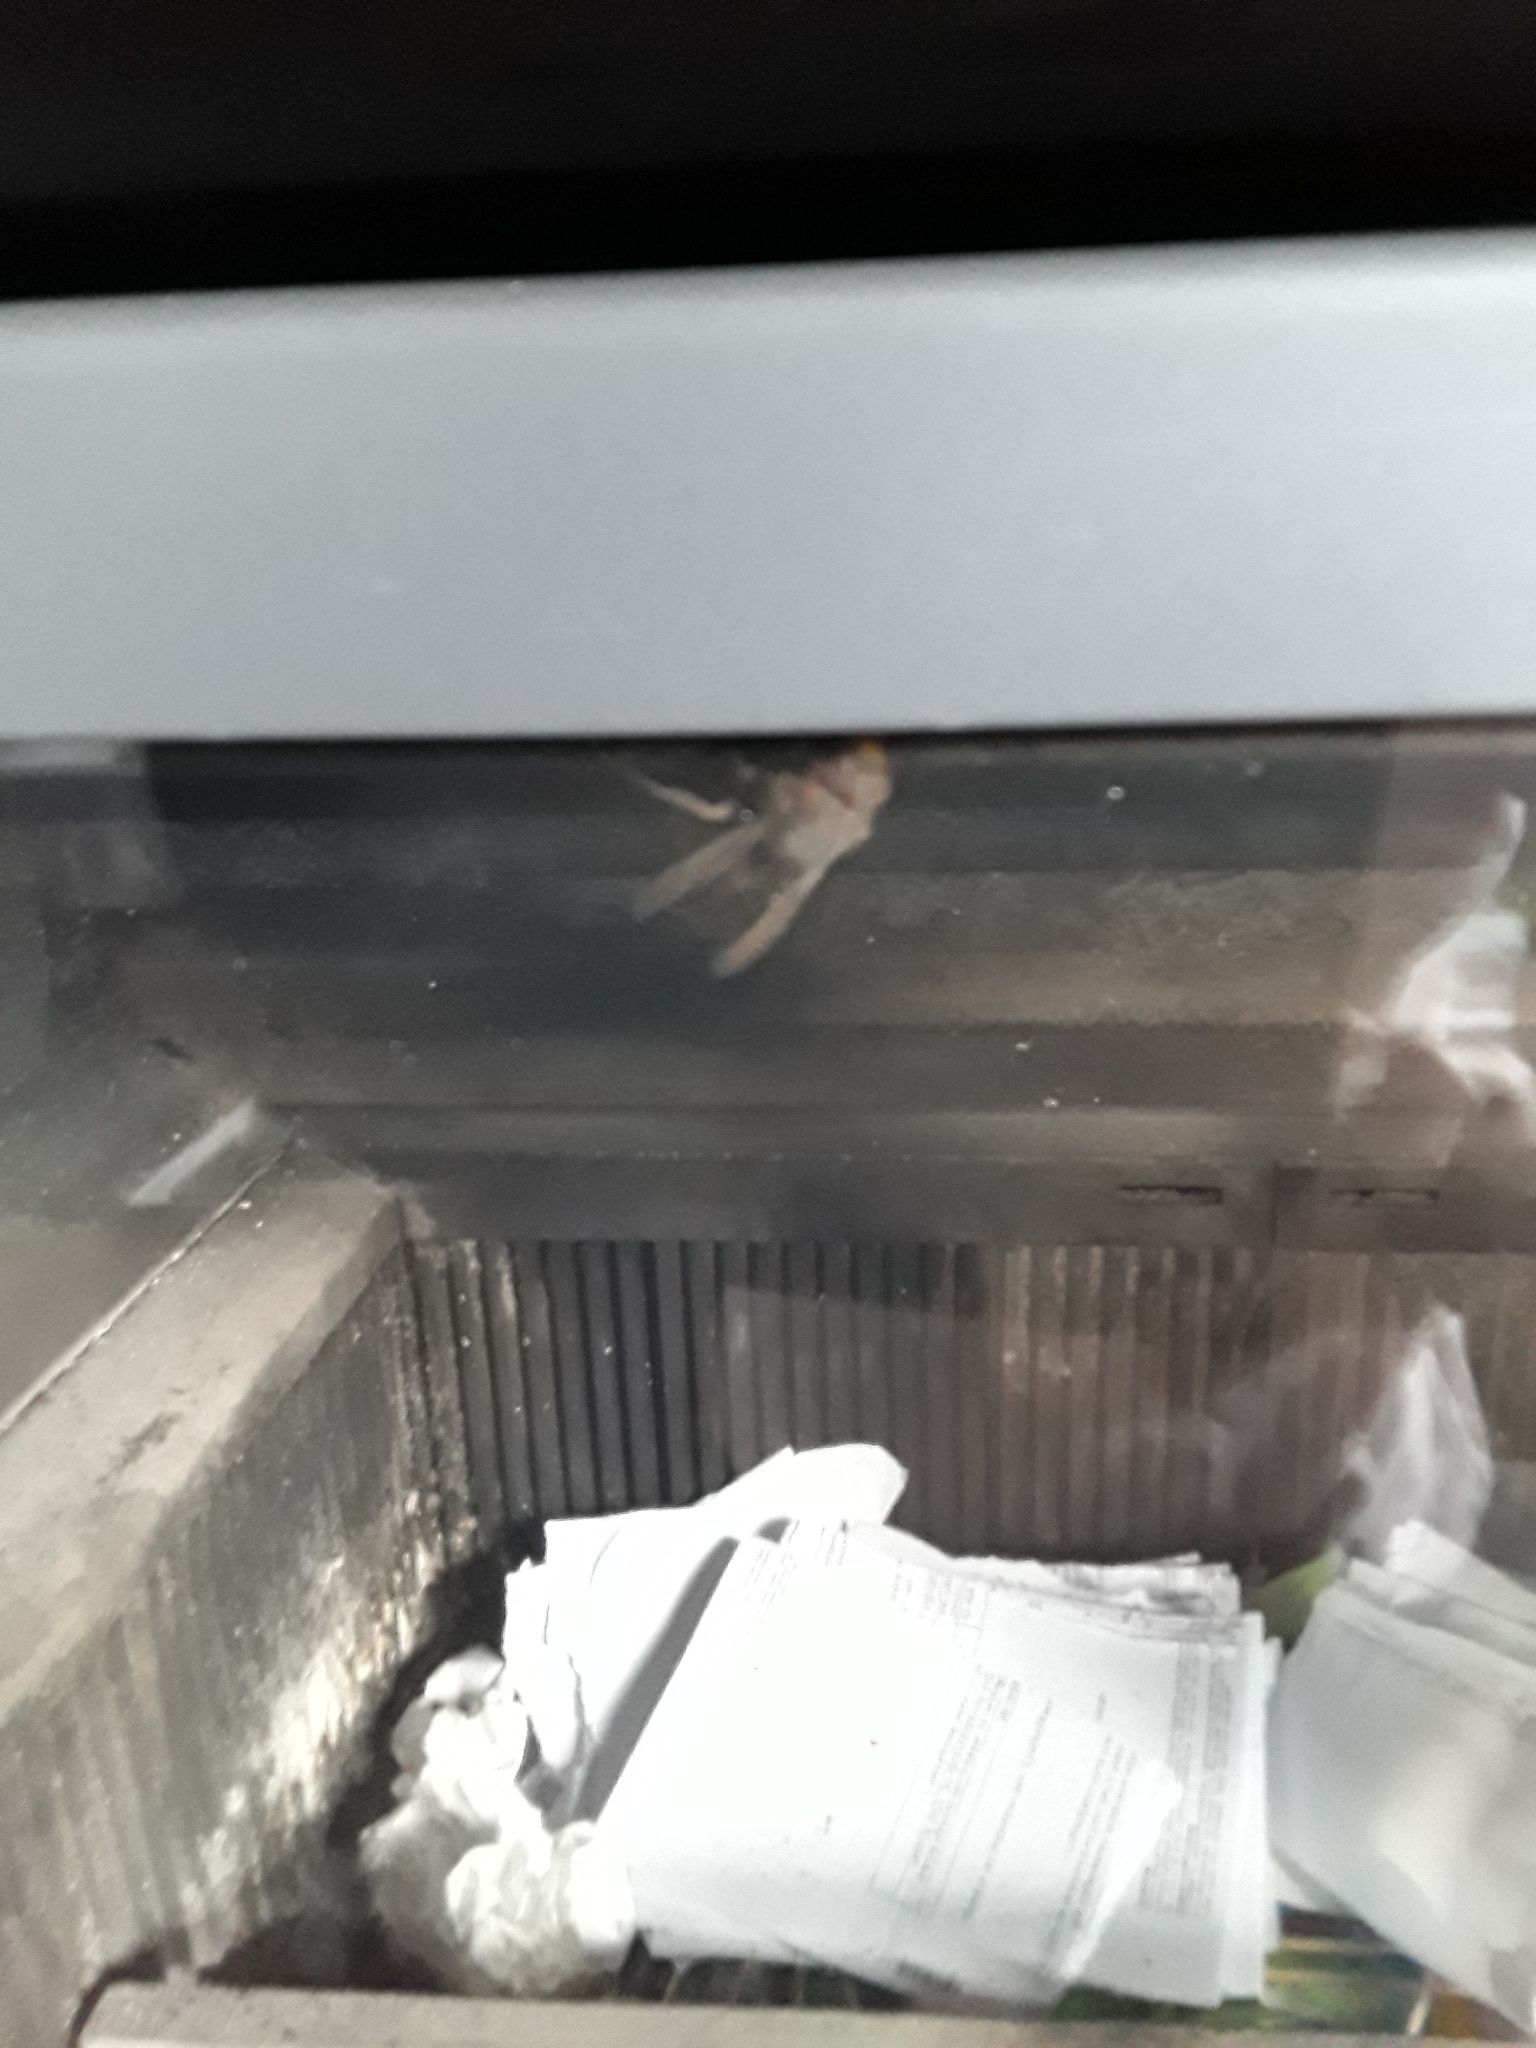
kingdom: Animalia
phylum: Arthropoda
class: Insecta
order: Hymenoptera
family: Vespidae
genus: Vespa
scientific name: Vespa crabro
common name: Hornet
